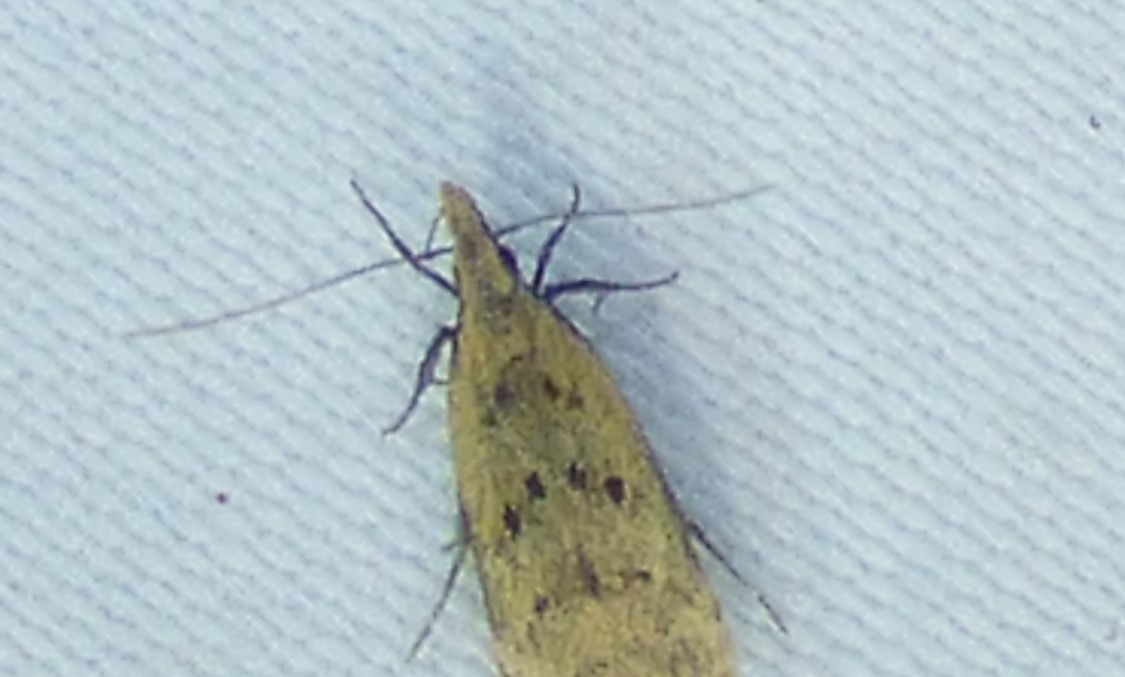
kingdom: Animalia
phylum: Arthropoda
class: Insecta
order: Lepidoptera
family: Gelechiidae
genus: Dichomeris
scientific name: Dichomeris punctipennella
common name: Many-spotted dichomeris moth
